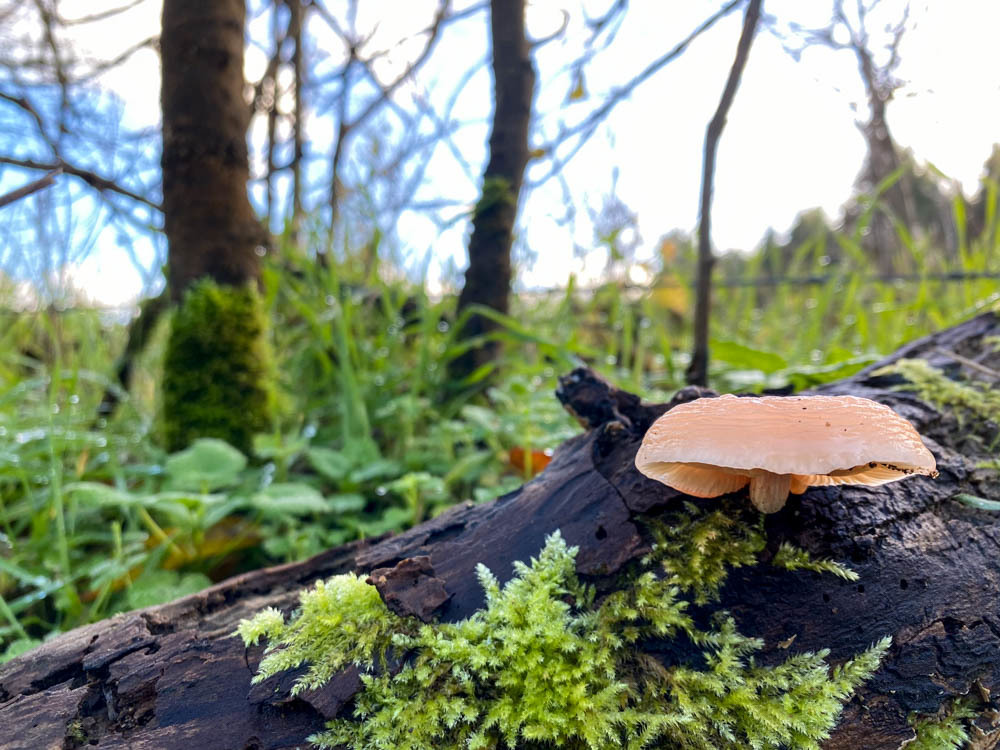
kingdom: Fungi
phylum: Basidiomycota
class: Agaricomycetes
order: Agaricales
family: Physalacriaceae
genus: Rhodotus
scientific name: Rhodotus palmatus
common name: Wrinkled peach
